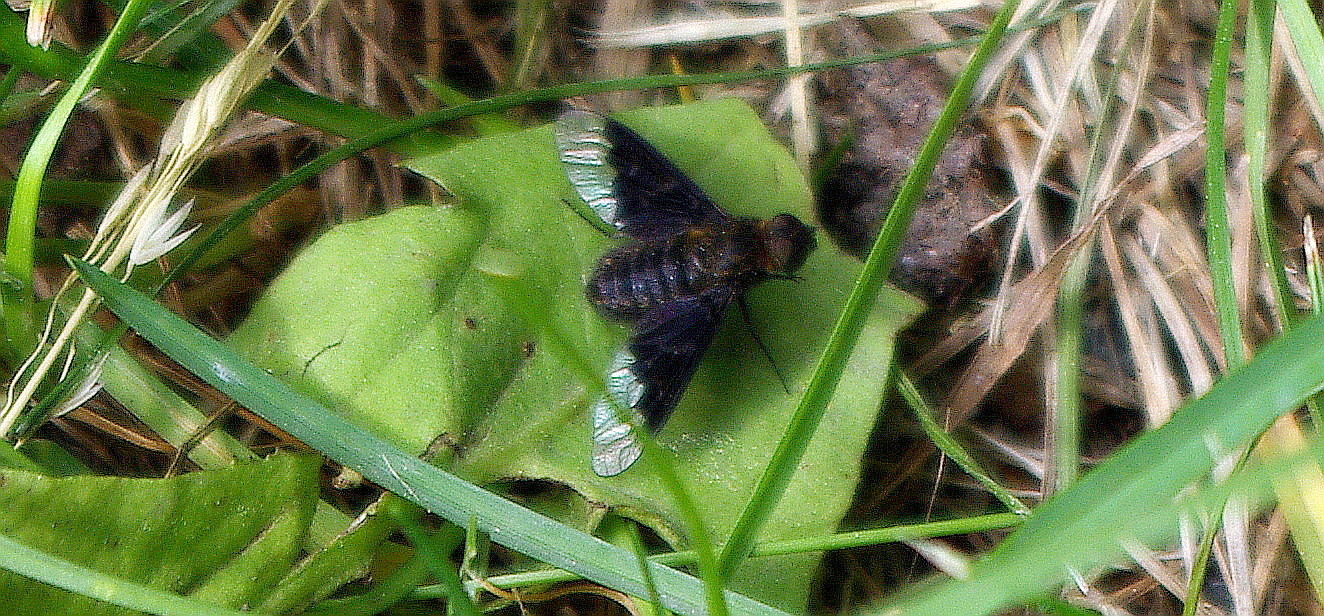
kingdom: Animalia
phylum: Arthropoda
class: Insecta
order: Diptera
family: Bombyliidae
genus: Hemipenthes
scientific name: Hemipenthes morio
